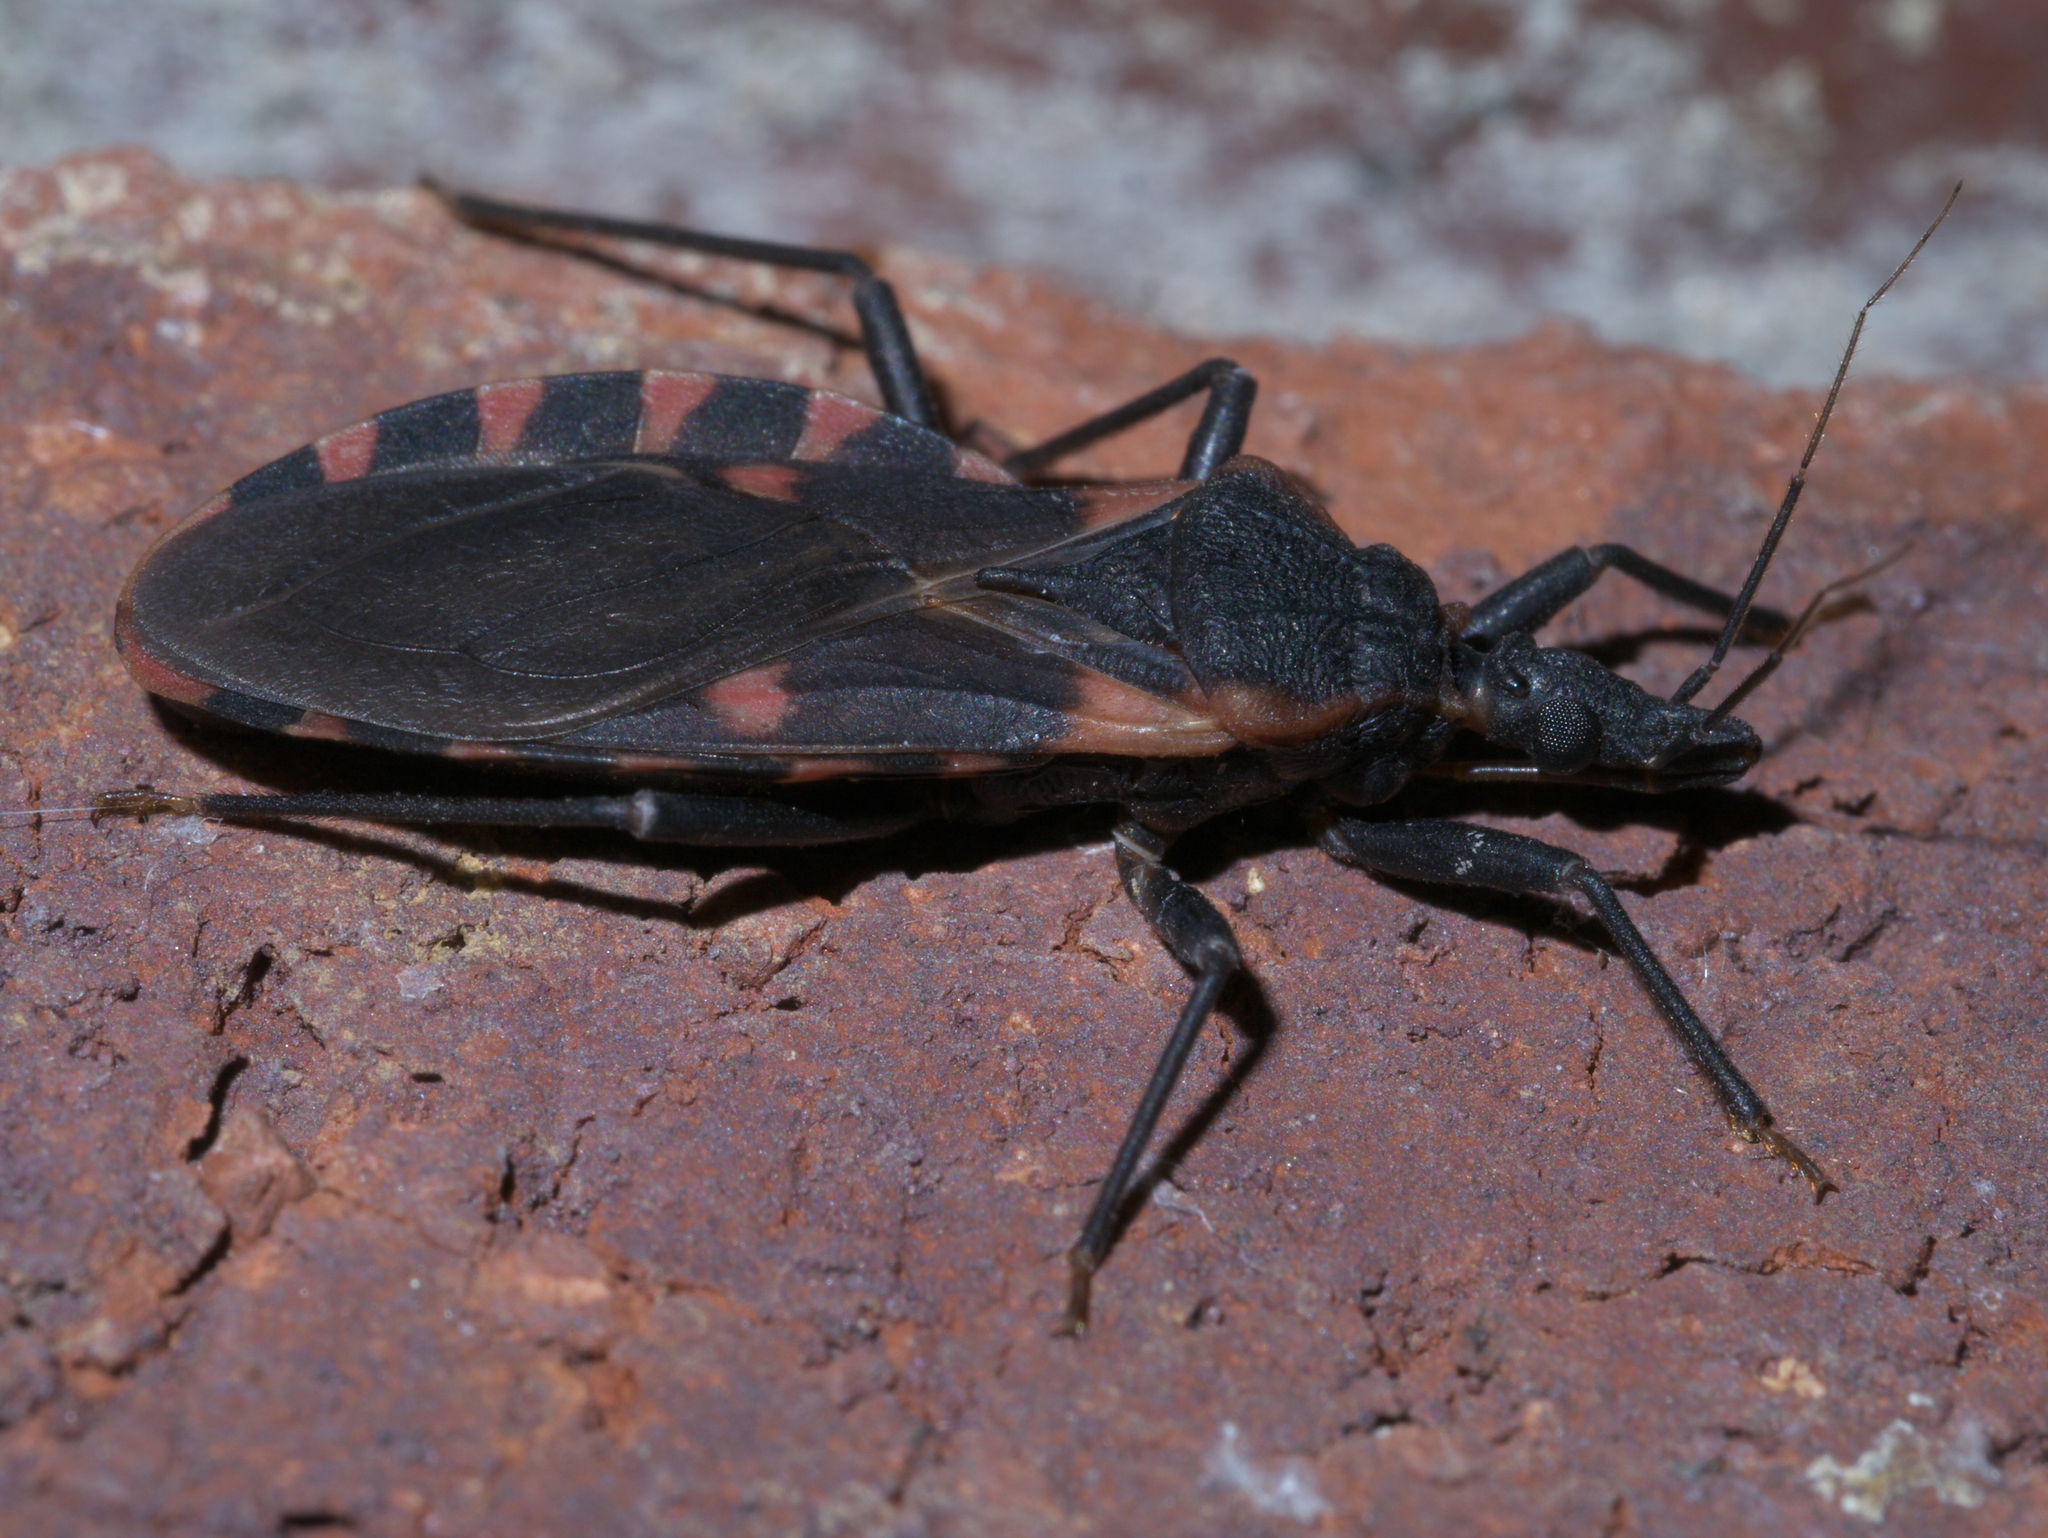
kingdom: Animalia
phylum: Arthropoda
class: Insecta
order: Hemiptera
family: Reduviidae
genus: Triatoma
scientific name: Triatoma sanguisuga
